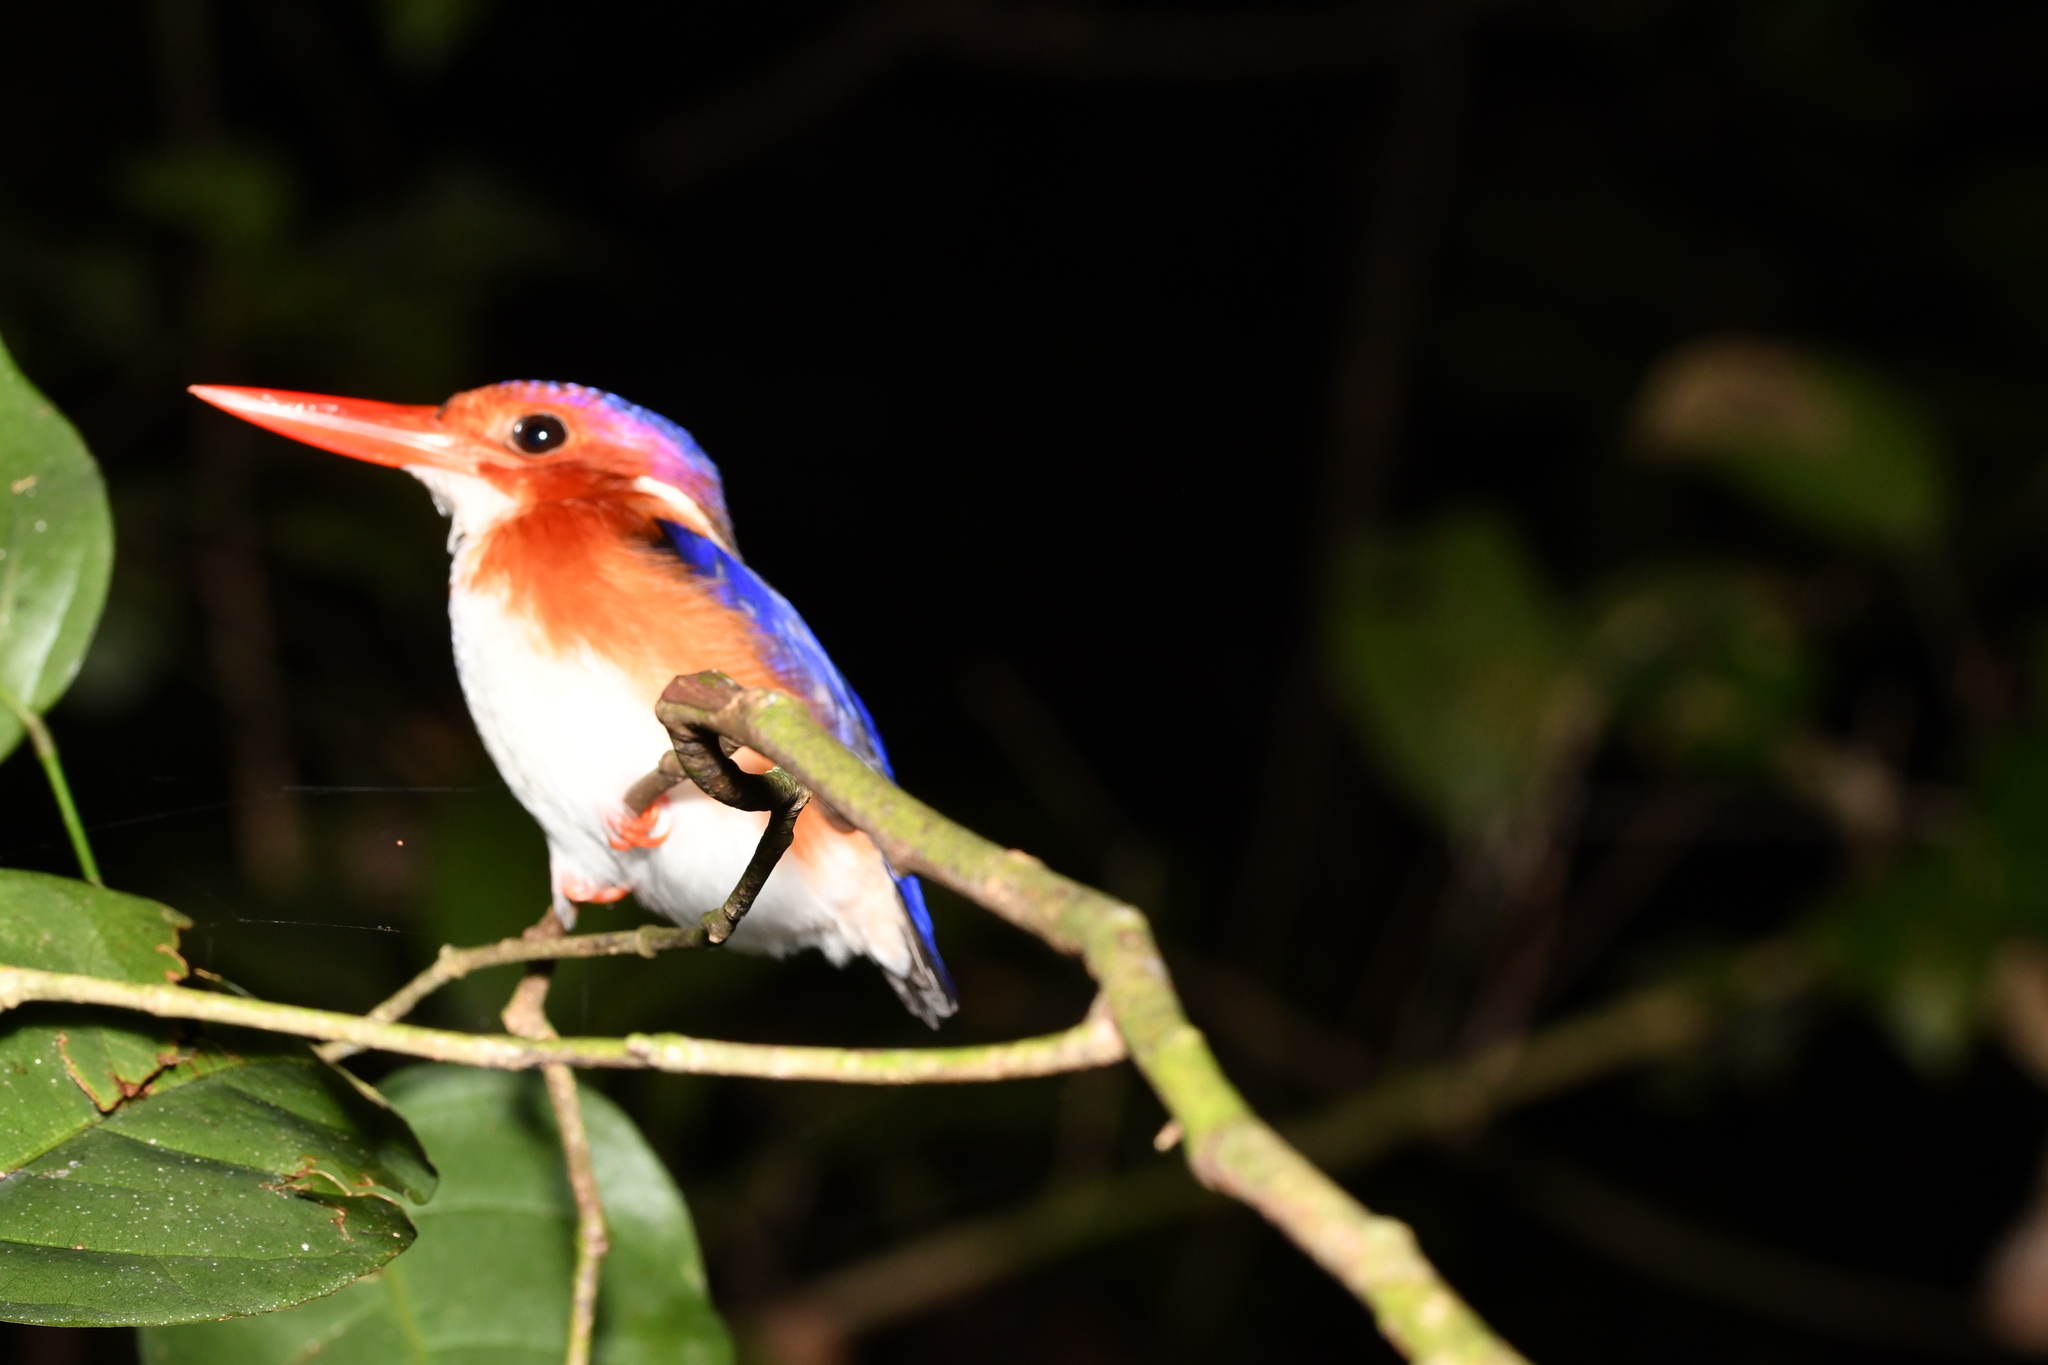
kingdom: Animalia
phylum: Chordata
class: Aves
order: Coraciiformes
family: Alcedinidae
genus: Corythornis
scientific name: Corythornis leucogaster
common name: White-bellied kingfisher
